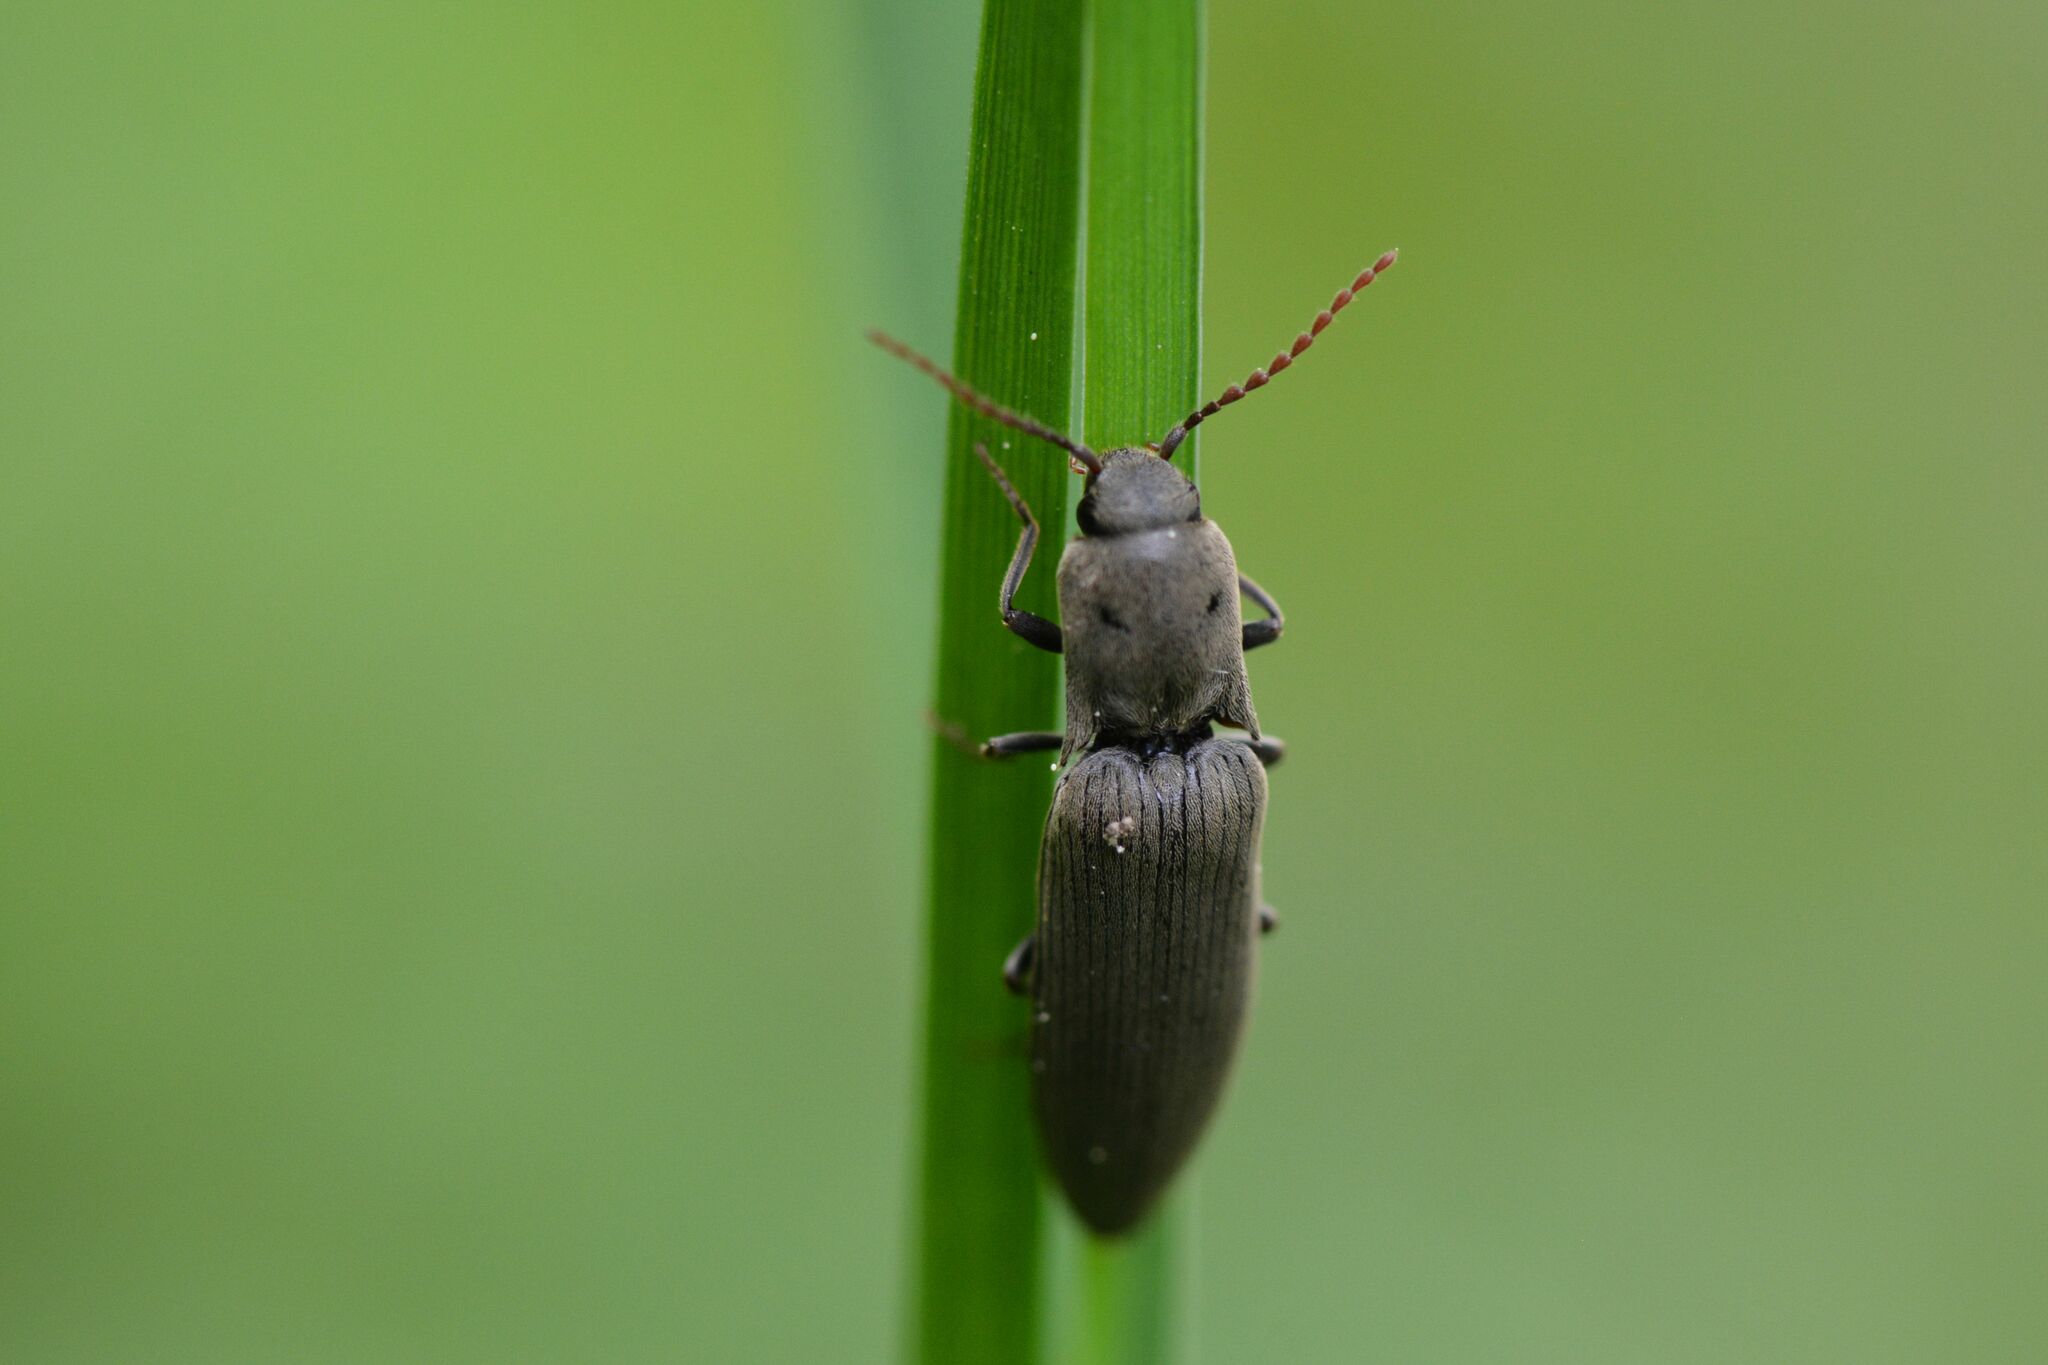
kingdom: Animalia
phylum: Arthropoda
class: Insecta
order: Coleoptera
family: Elateridae
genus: Agriotes
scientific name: Agriotes pilosellus
